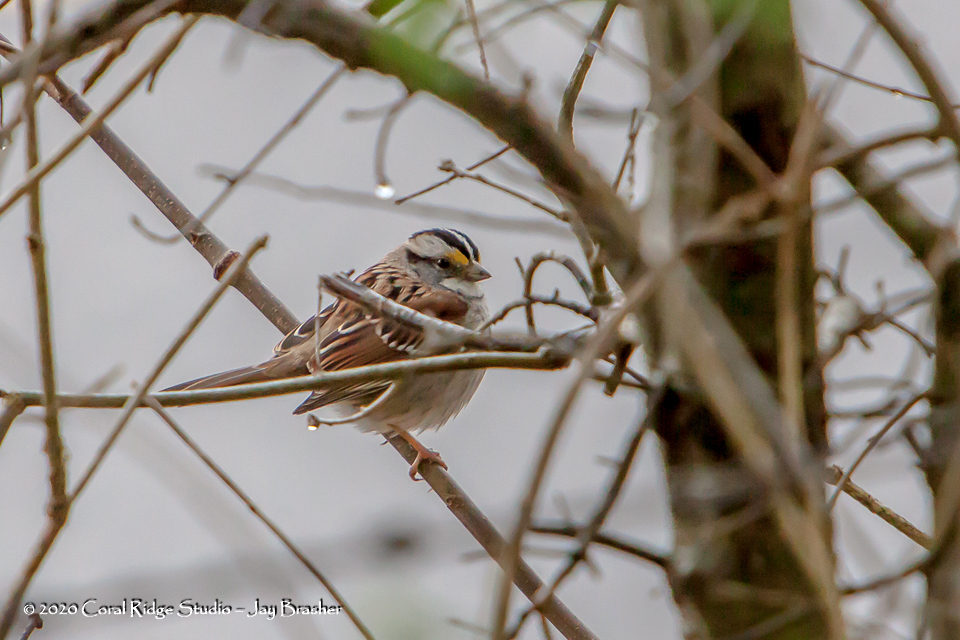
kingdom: Animalia
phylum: Chordata
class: Aves
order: Passeriformes
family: Passerellidae
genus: Zonotrichia
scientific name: Zonotrichia albicollis
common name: White-throated sparrow
